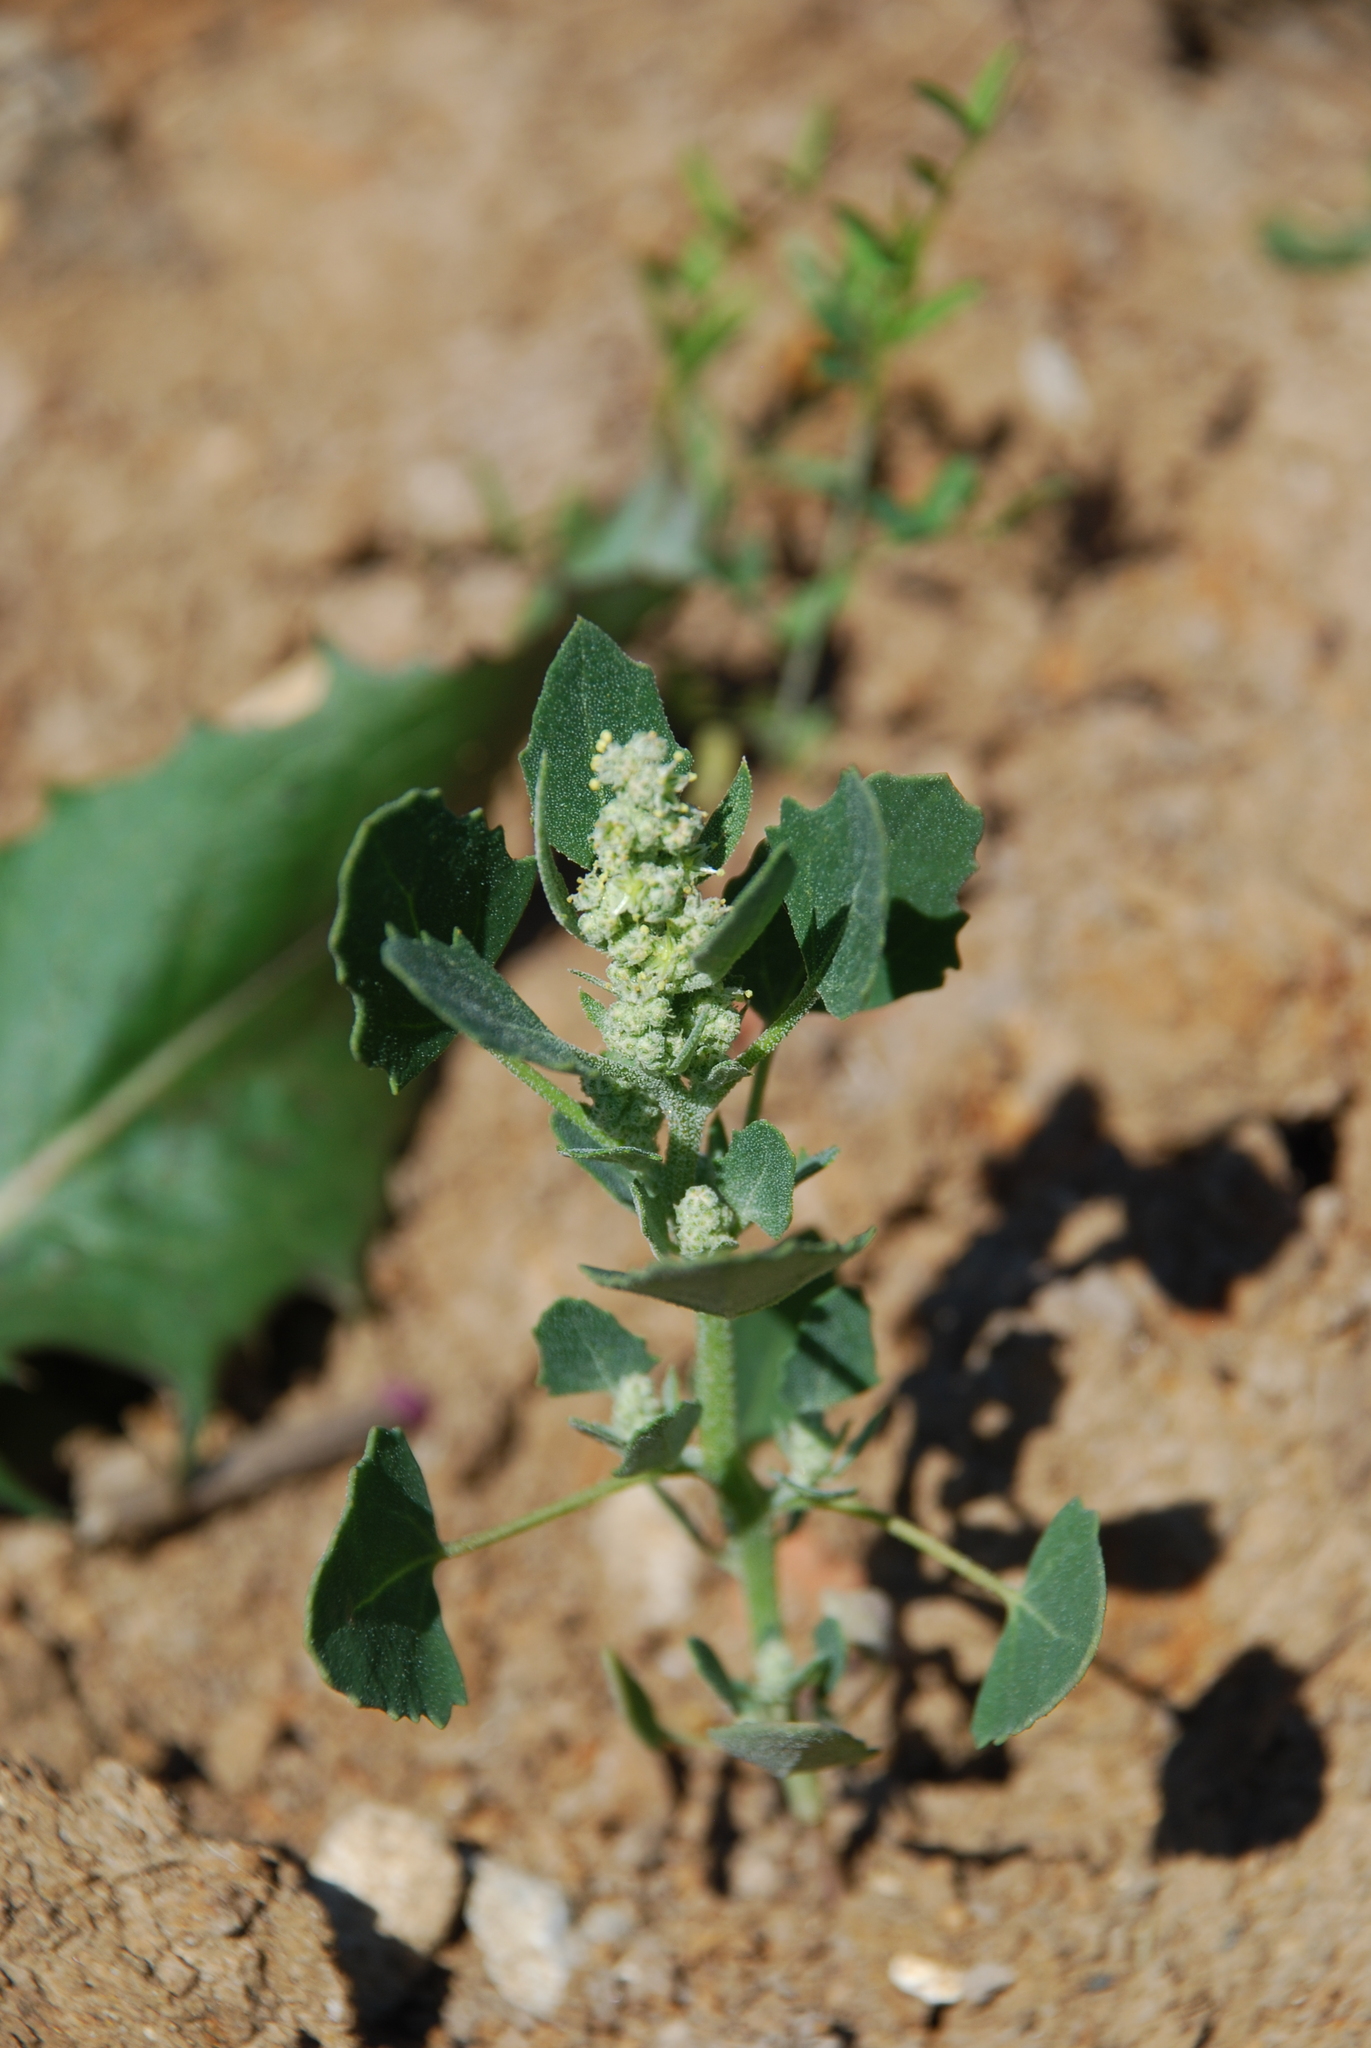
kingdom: Plantae
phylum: Tracheophyta
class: Magnoliopsida
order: Caryophyllales
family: Amaranthaceae
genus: Chenopodium
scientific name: Chenopodium album
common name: Fat-hen
